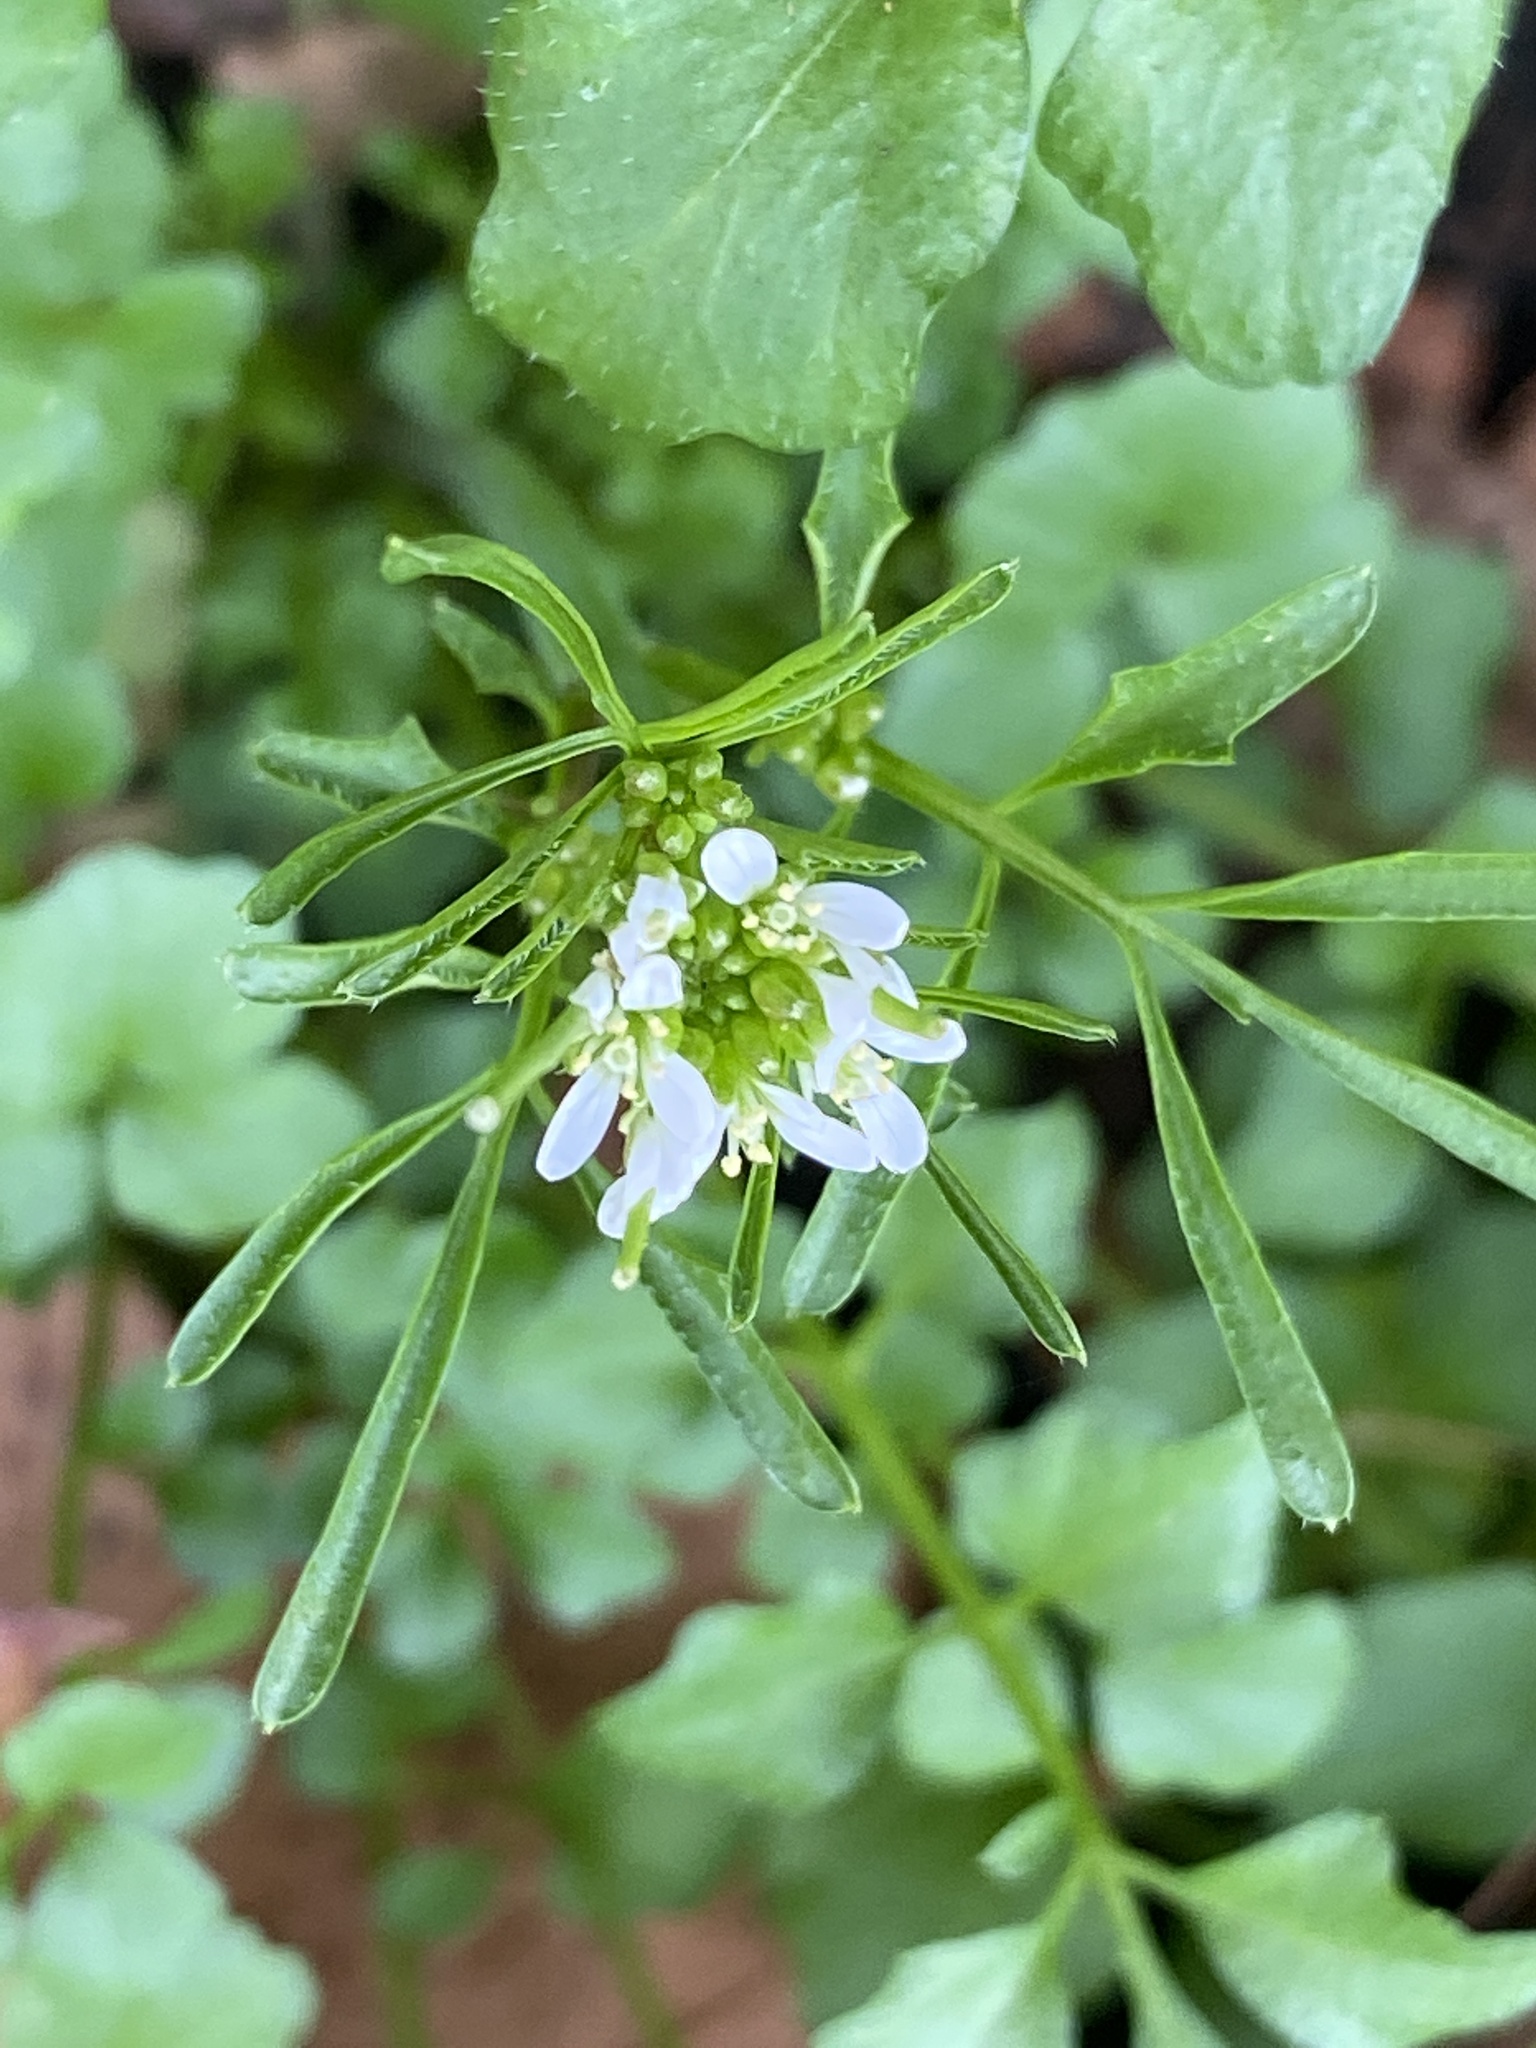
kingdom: Plantae
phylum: Tracheophyta
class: Magnoliopsida
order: Brassicales
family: Brassicaceae
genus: Cardamine
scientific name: Cardamine hirsuta
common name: Hairy bittercress
